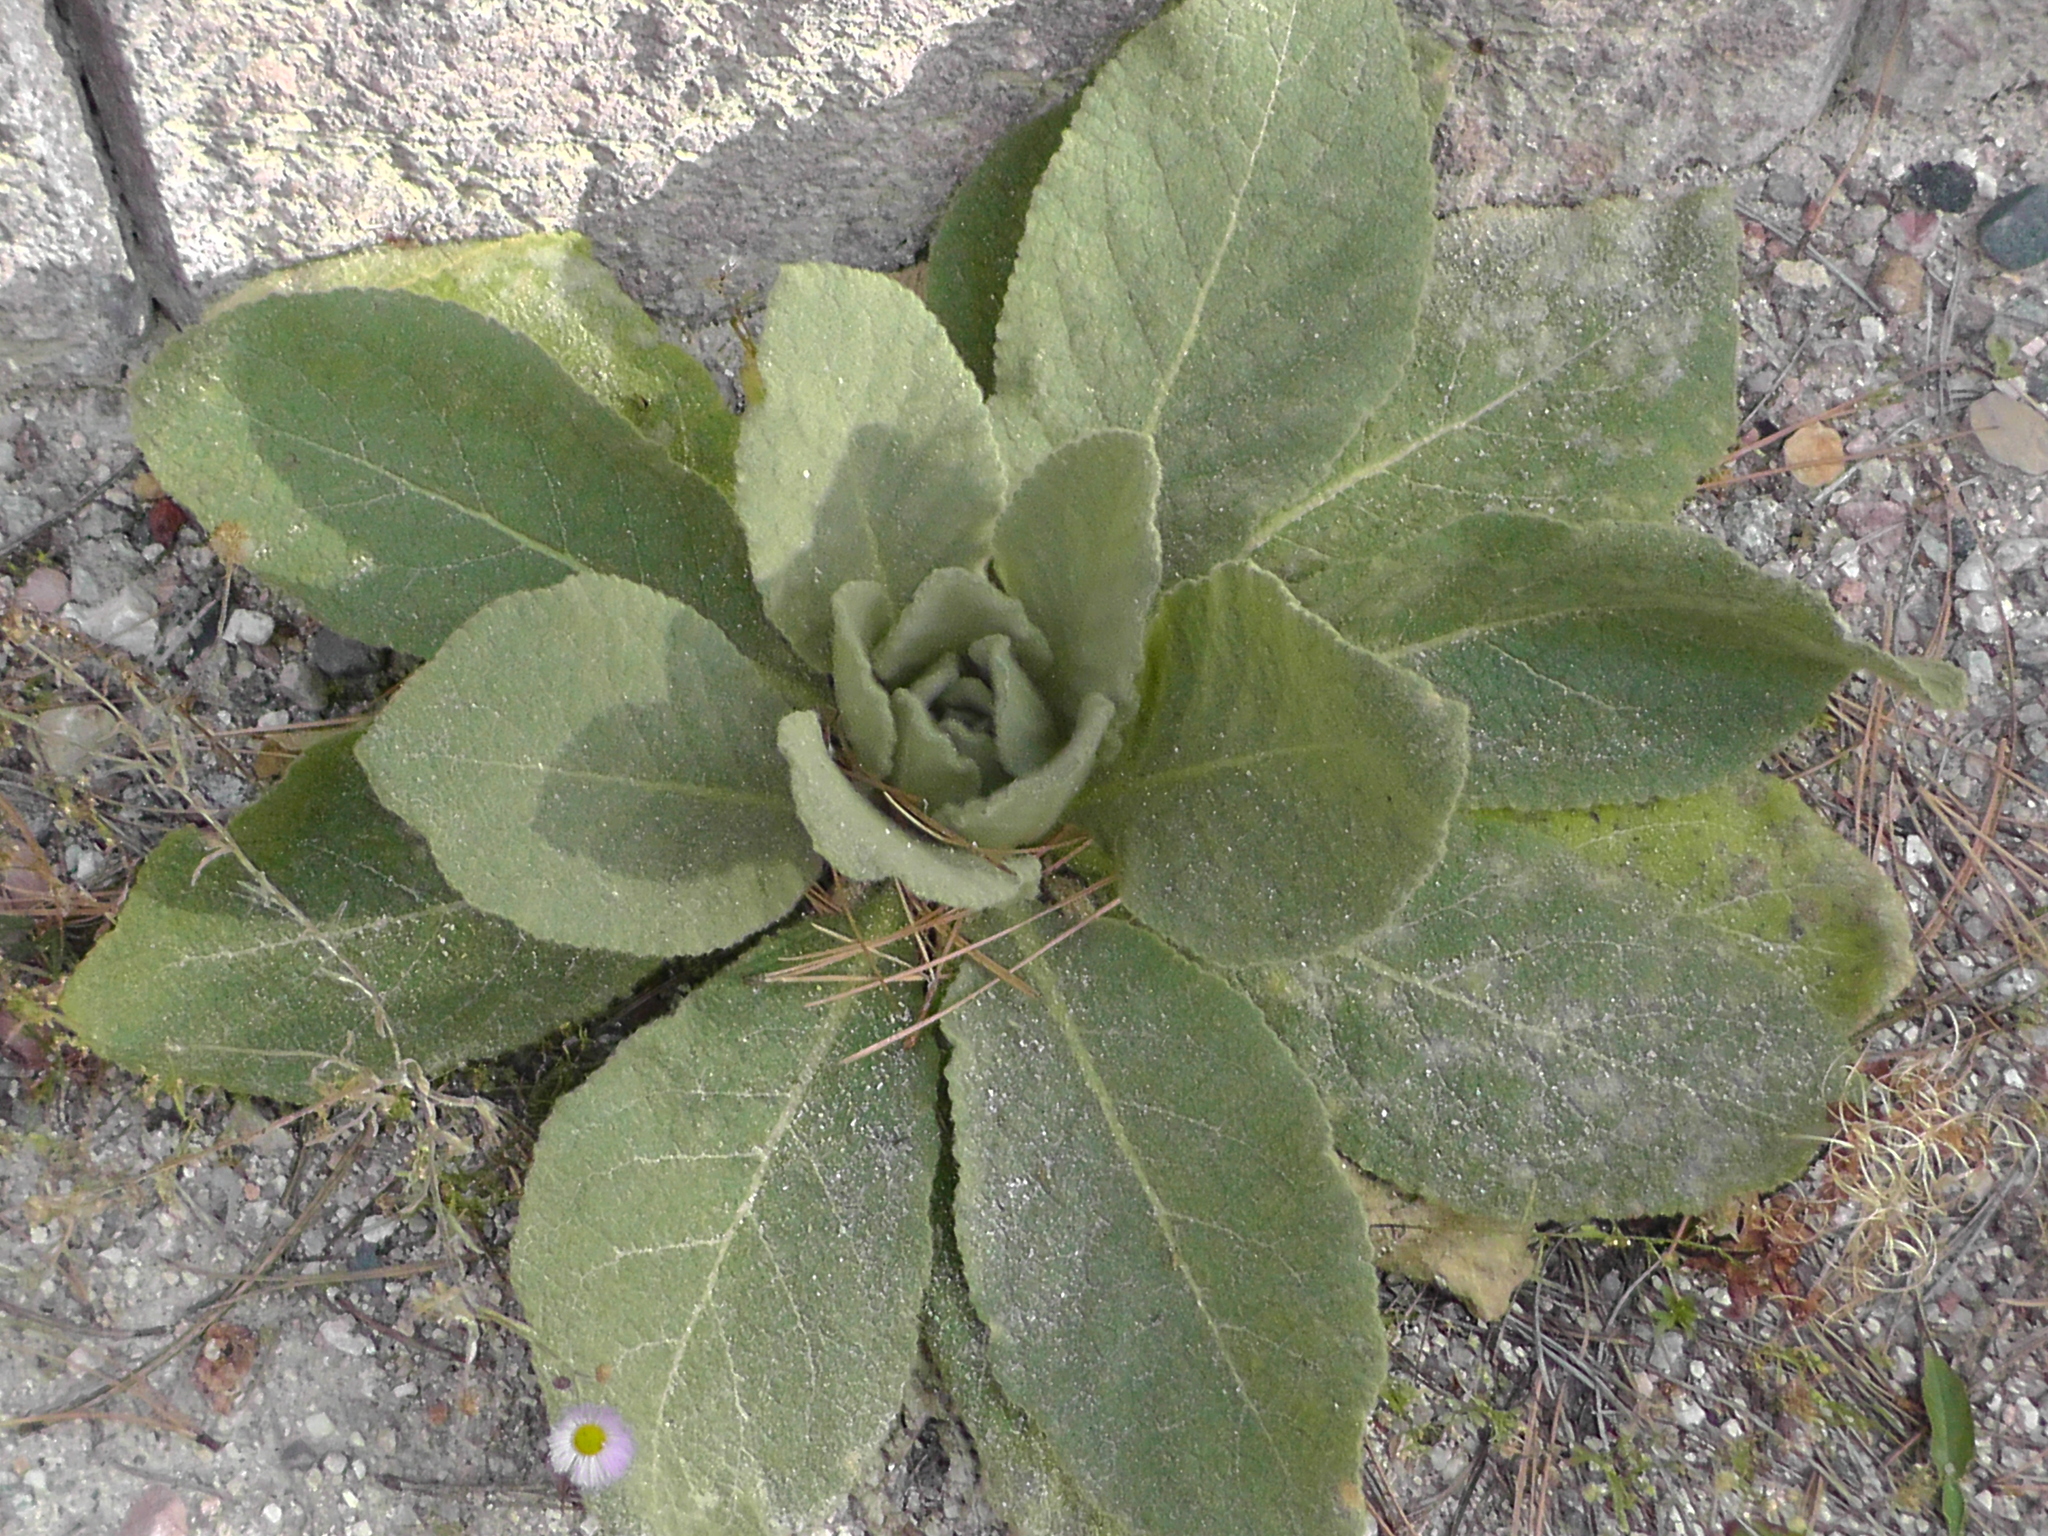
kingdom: Plantae
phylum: Tracheophyta
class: Magnoliopsida
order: Lamiales
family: Scrophulariaceae
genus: Verbascum
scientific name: Verbascum thapsus
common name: Common mullein
